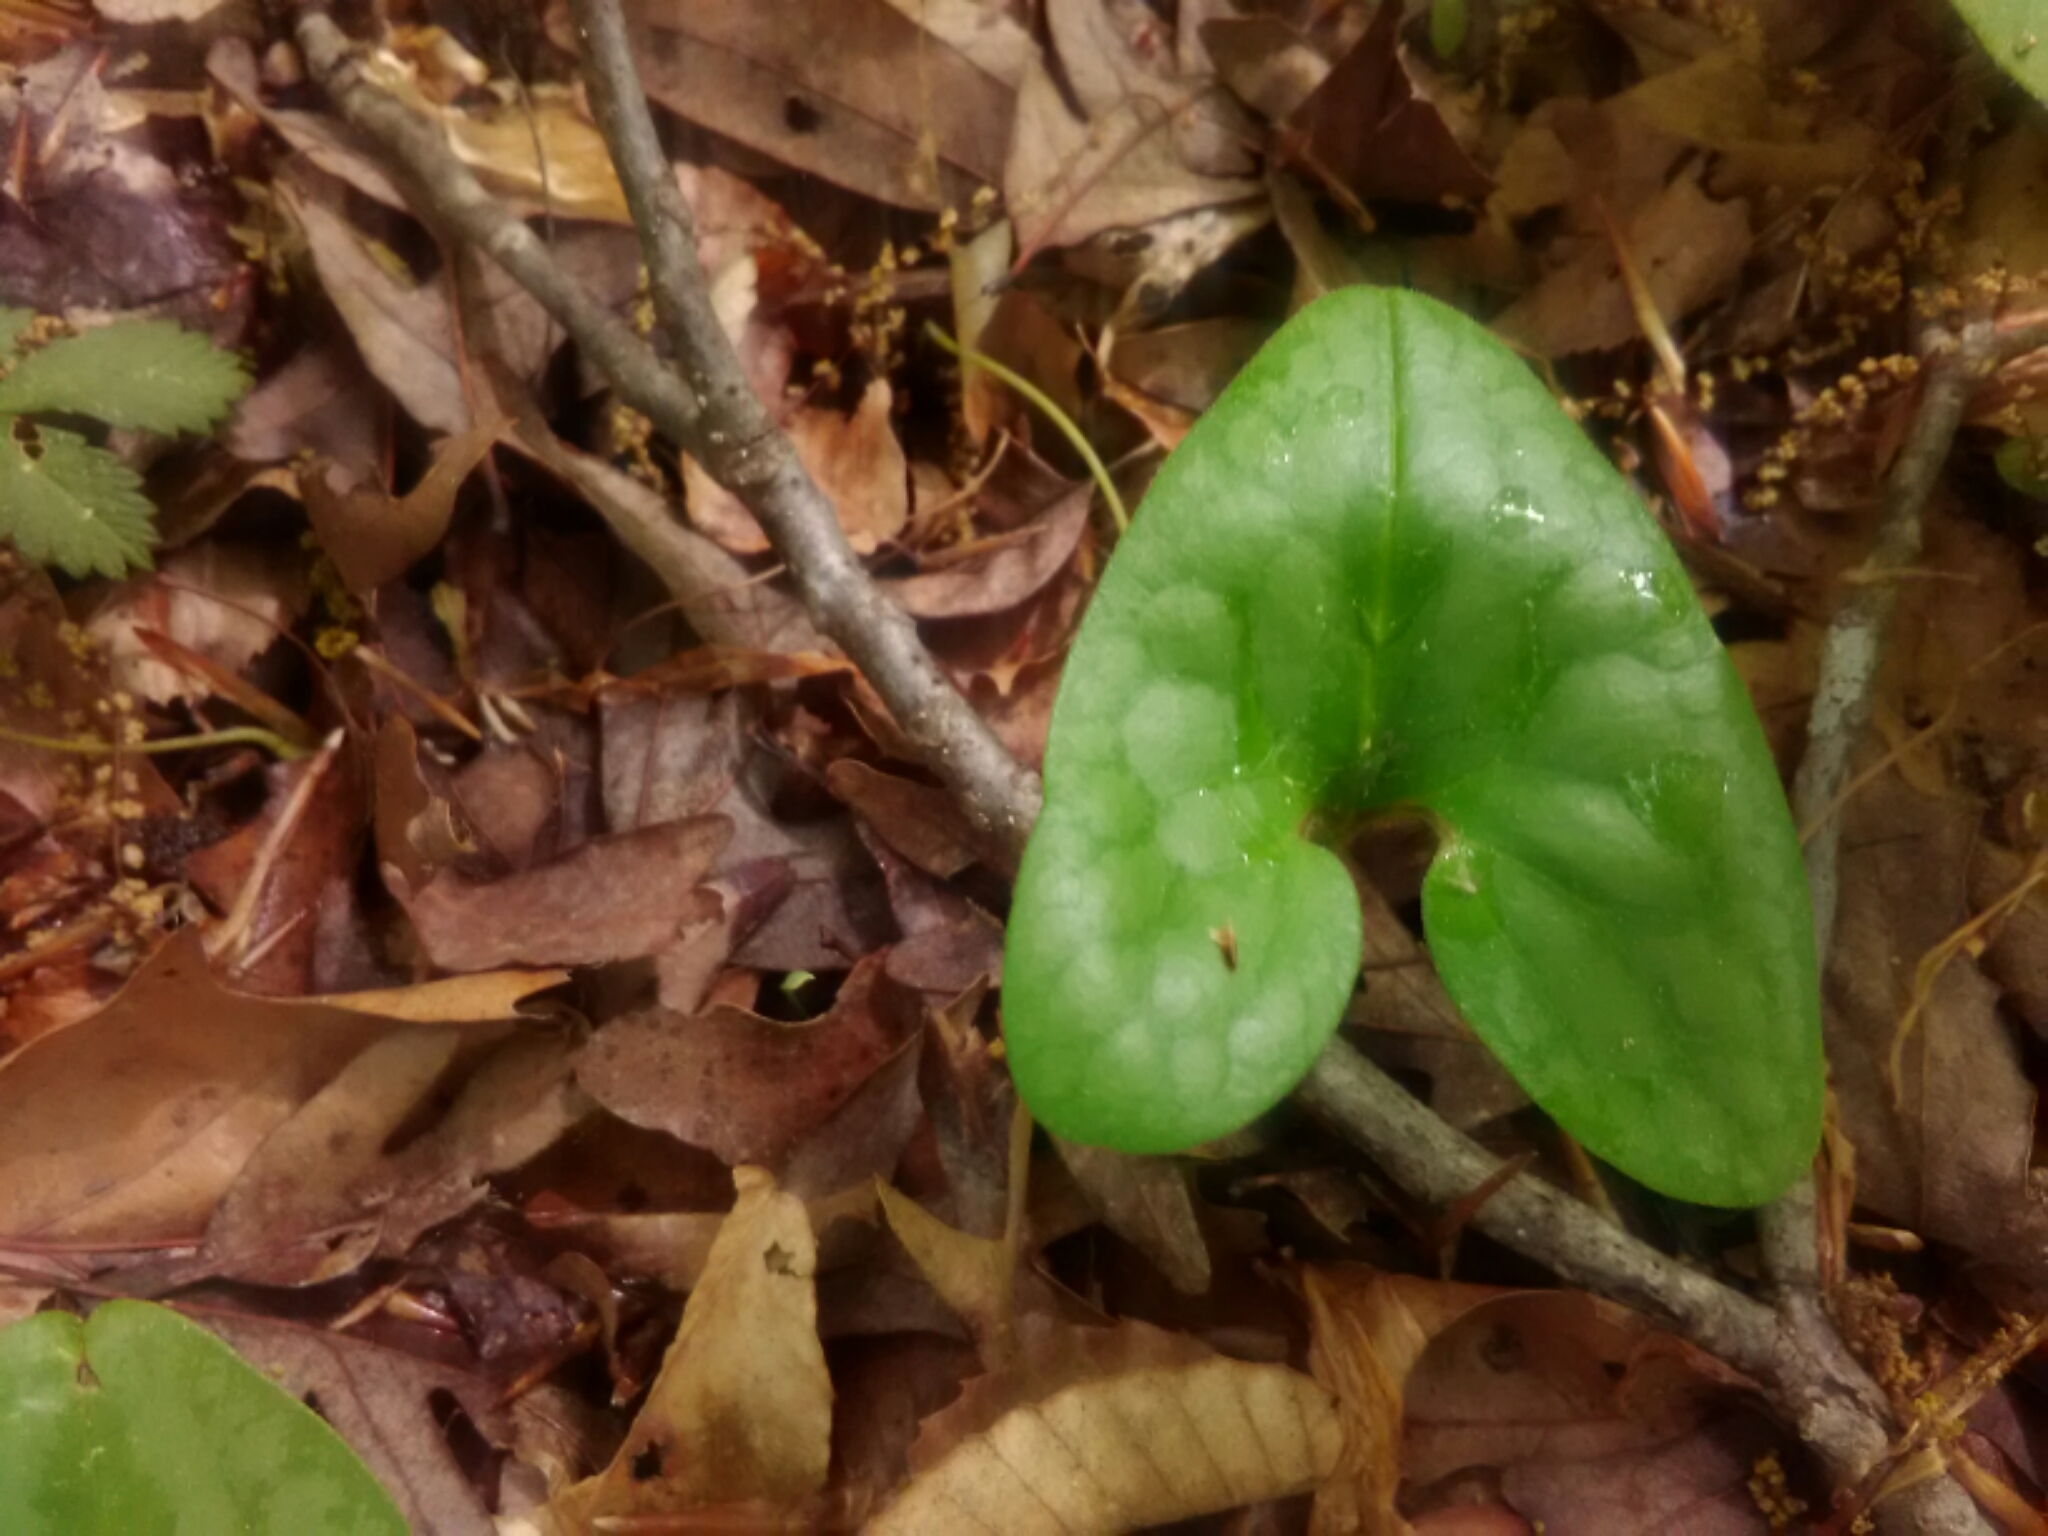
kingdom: Plantae
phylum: Tracheophyta
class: Magnoliopsida
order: Piperales
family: Aristolochiaceae
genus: Hexastylis
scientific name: Hexastylis arifolia
